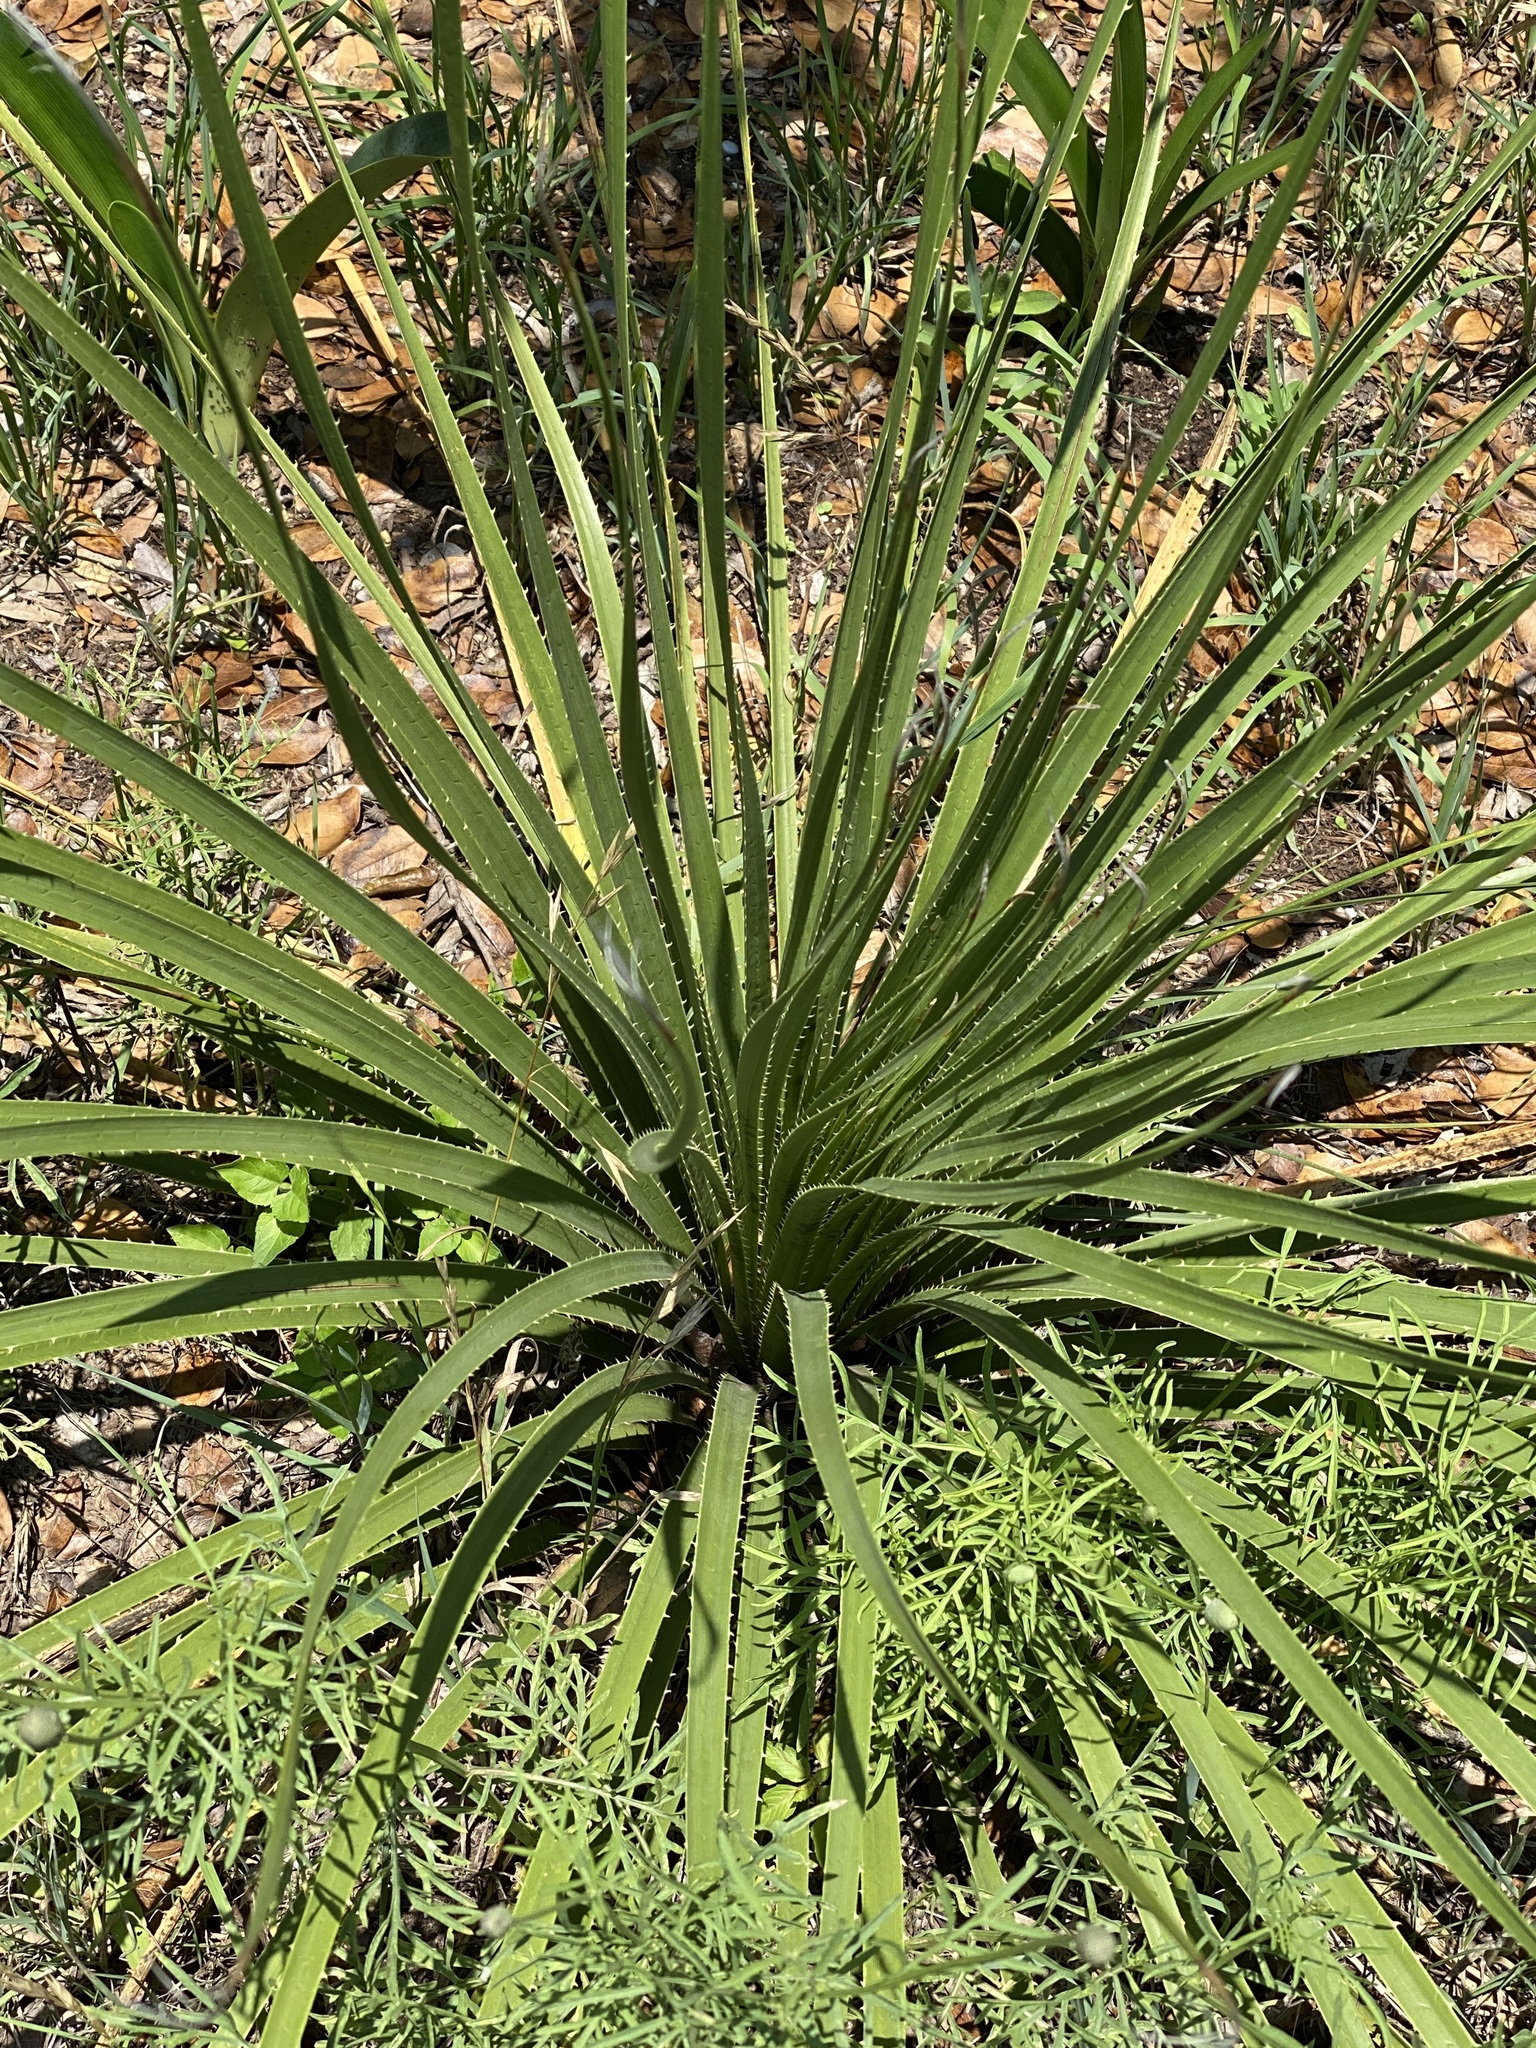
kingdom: Plantae
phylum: Tracheophyta
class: Liliopsida
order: Asparagales
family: Asparagaceae
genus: Dasylirion
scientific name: Dasylirion texanum
